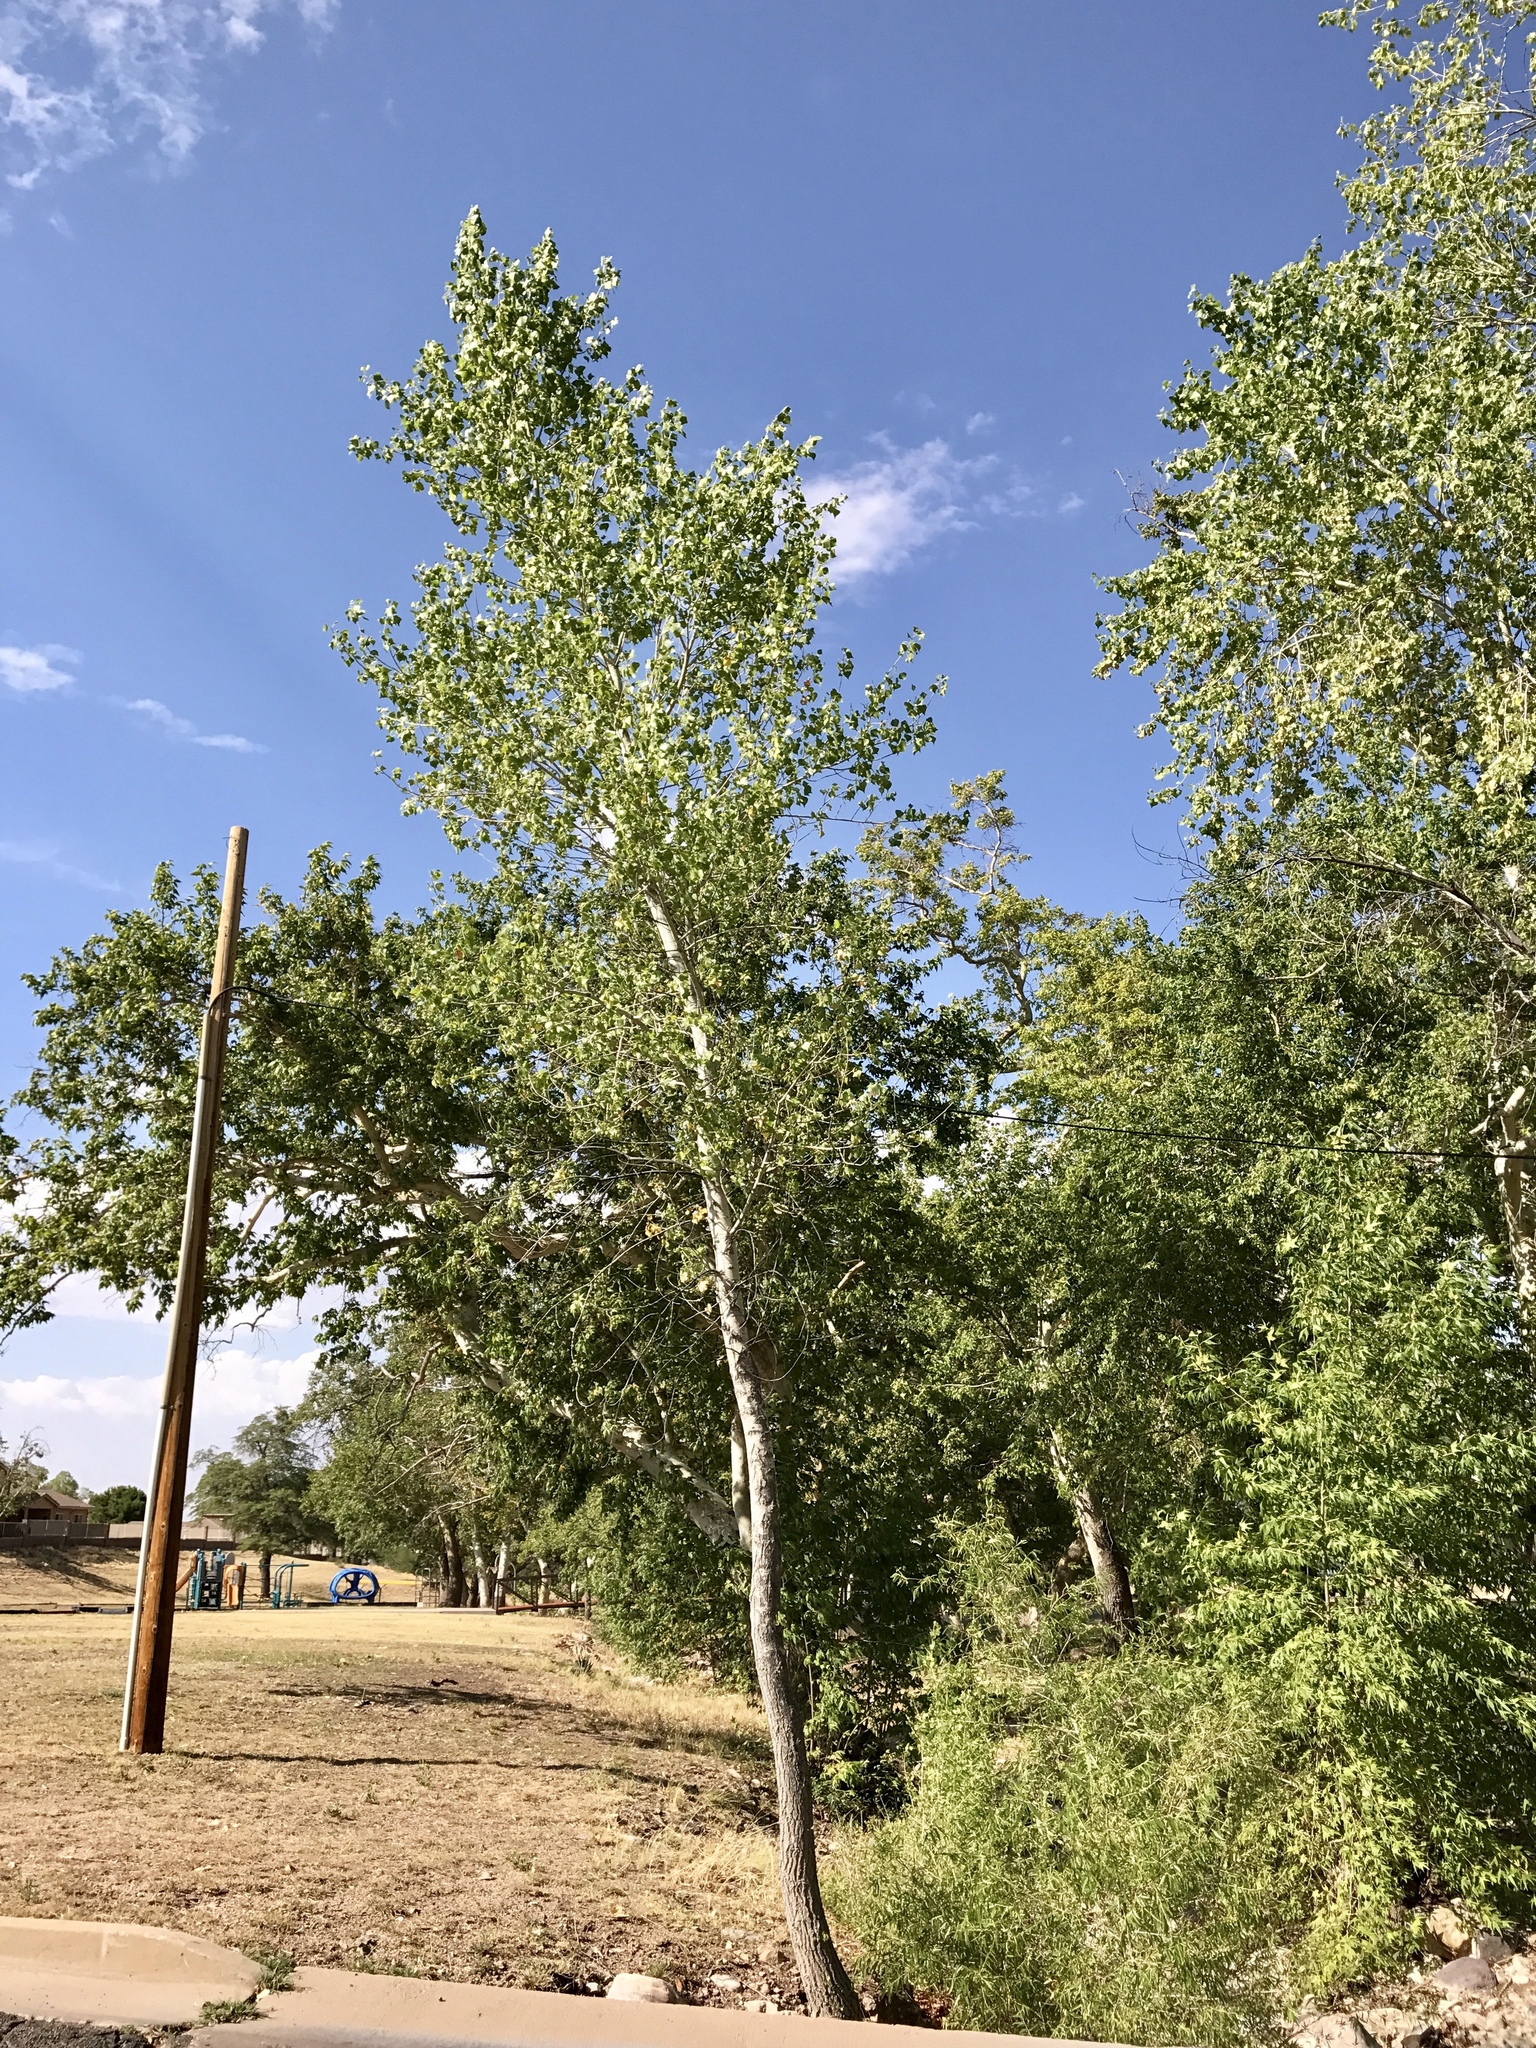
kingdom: Plantae
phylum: Tracheophyta
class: Magnoliopsida
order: Malpighiales
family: Salicaceae
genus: Populus
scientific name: Populus fremontii
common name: Fremont's cottonwood
